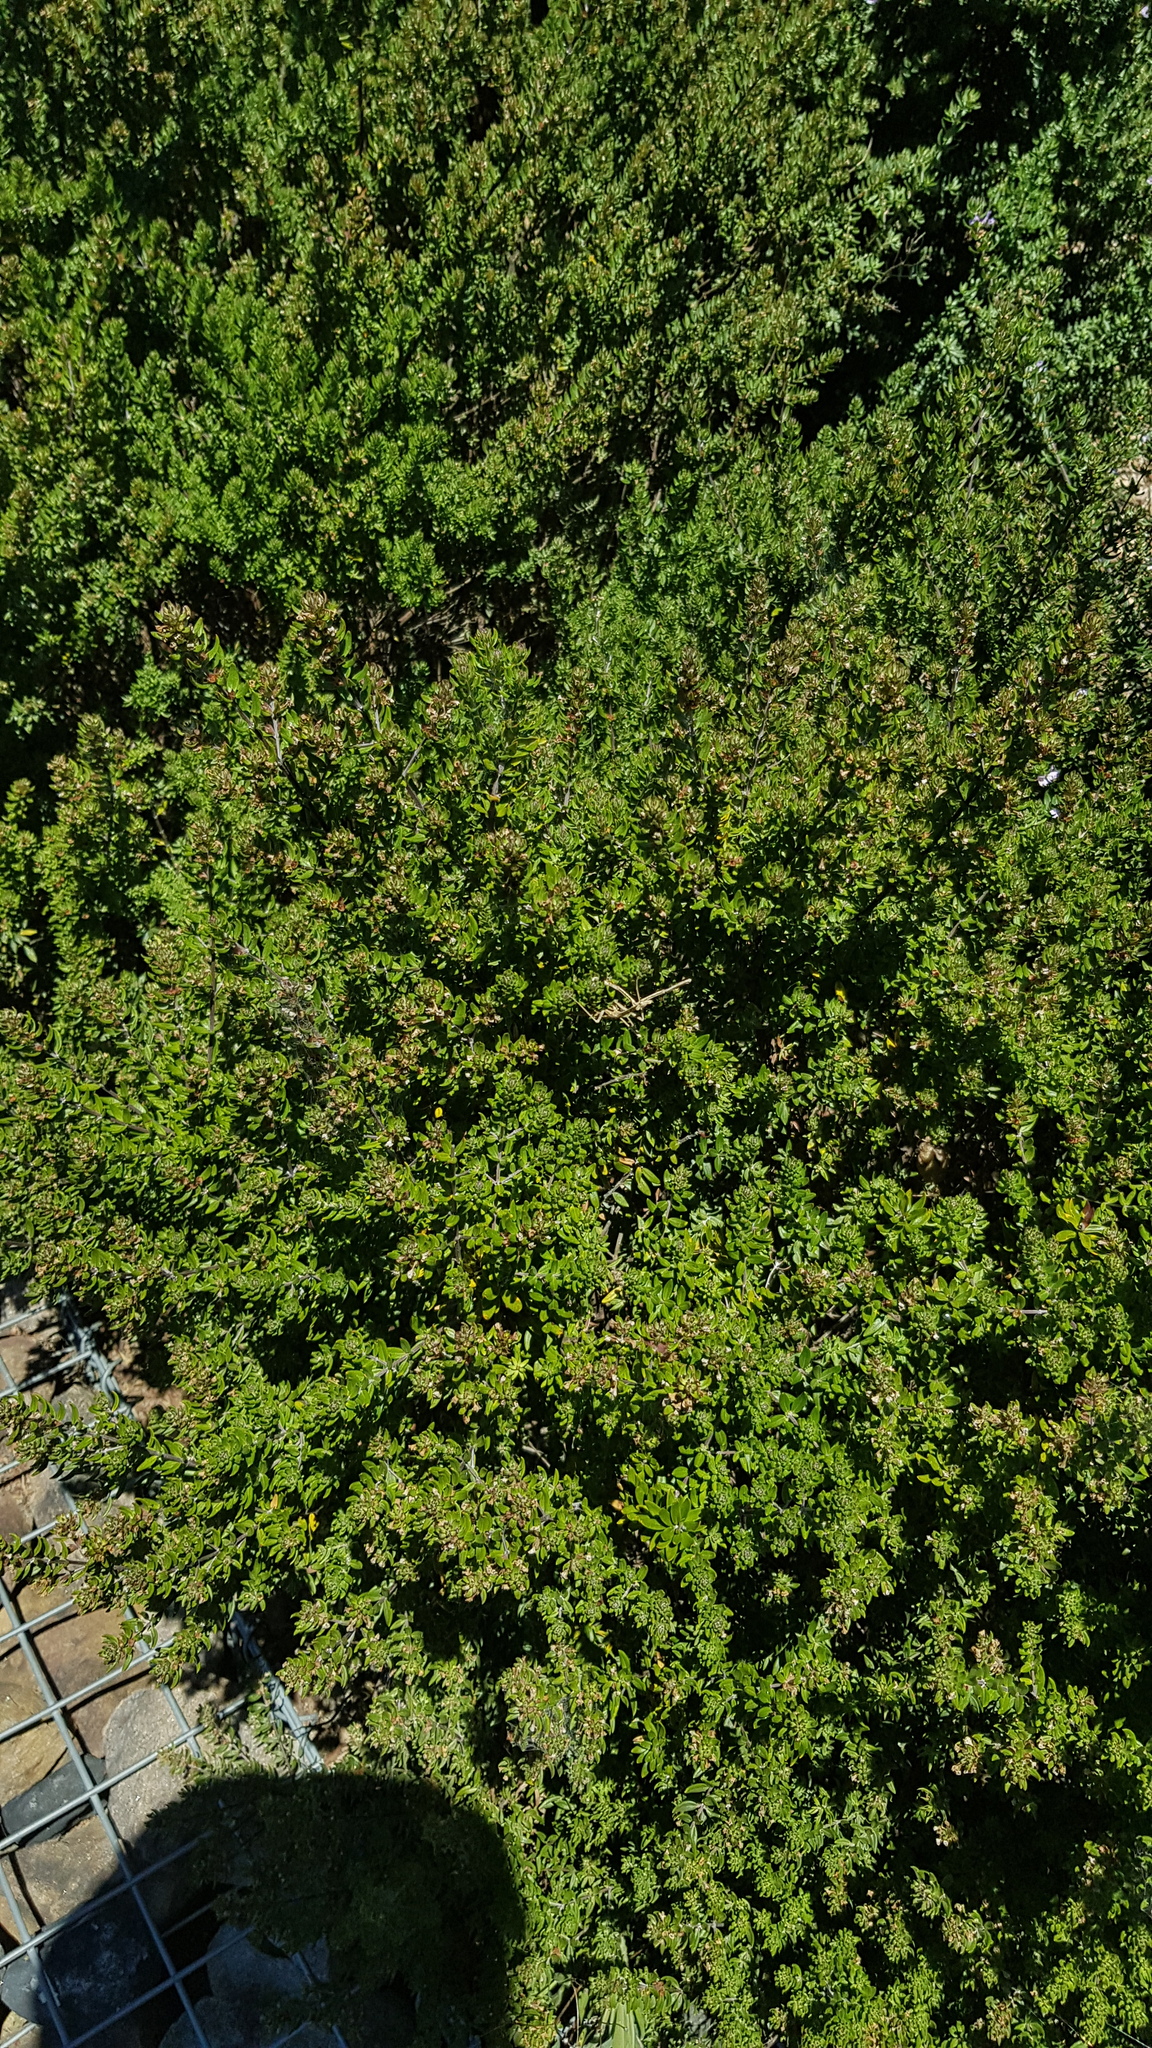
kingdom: Animalia
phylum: Arthropoda
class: Insecta
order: Mantodea
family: Mantidae
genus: Archimantis
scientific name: Archimantis latistyla
